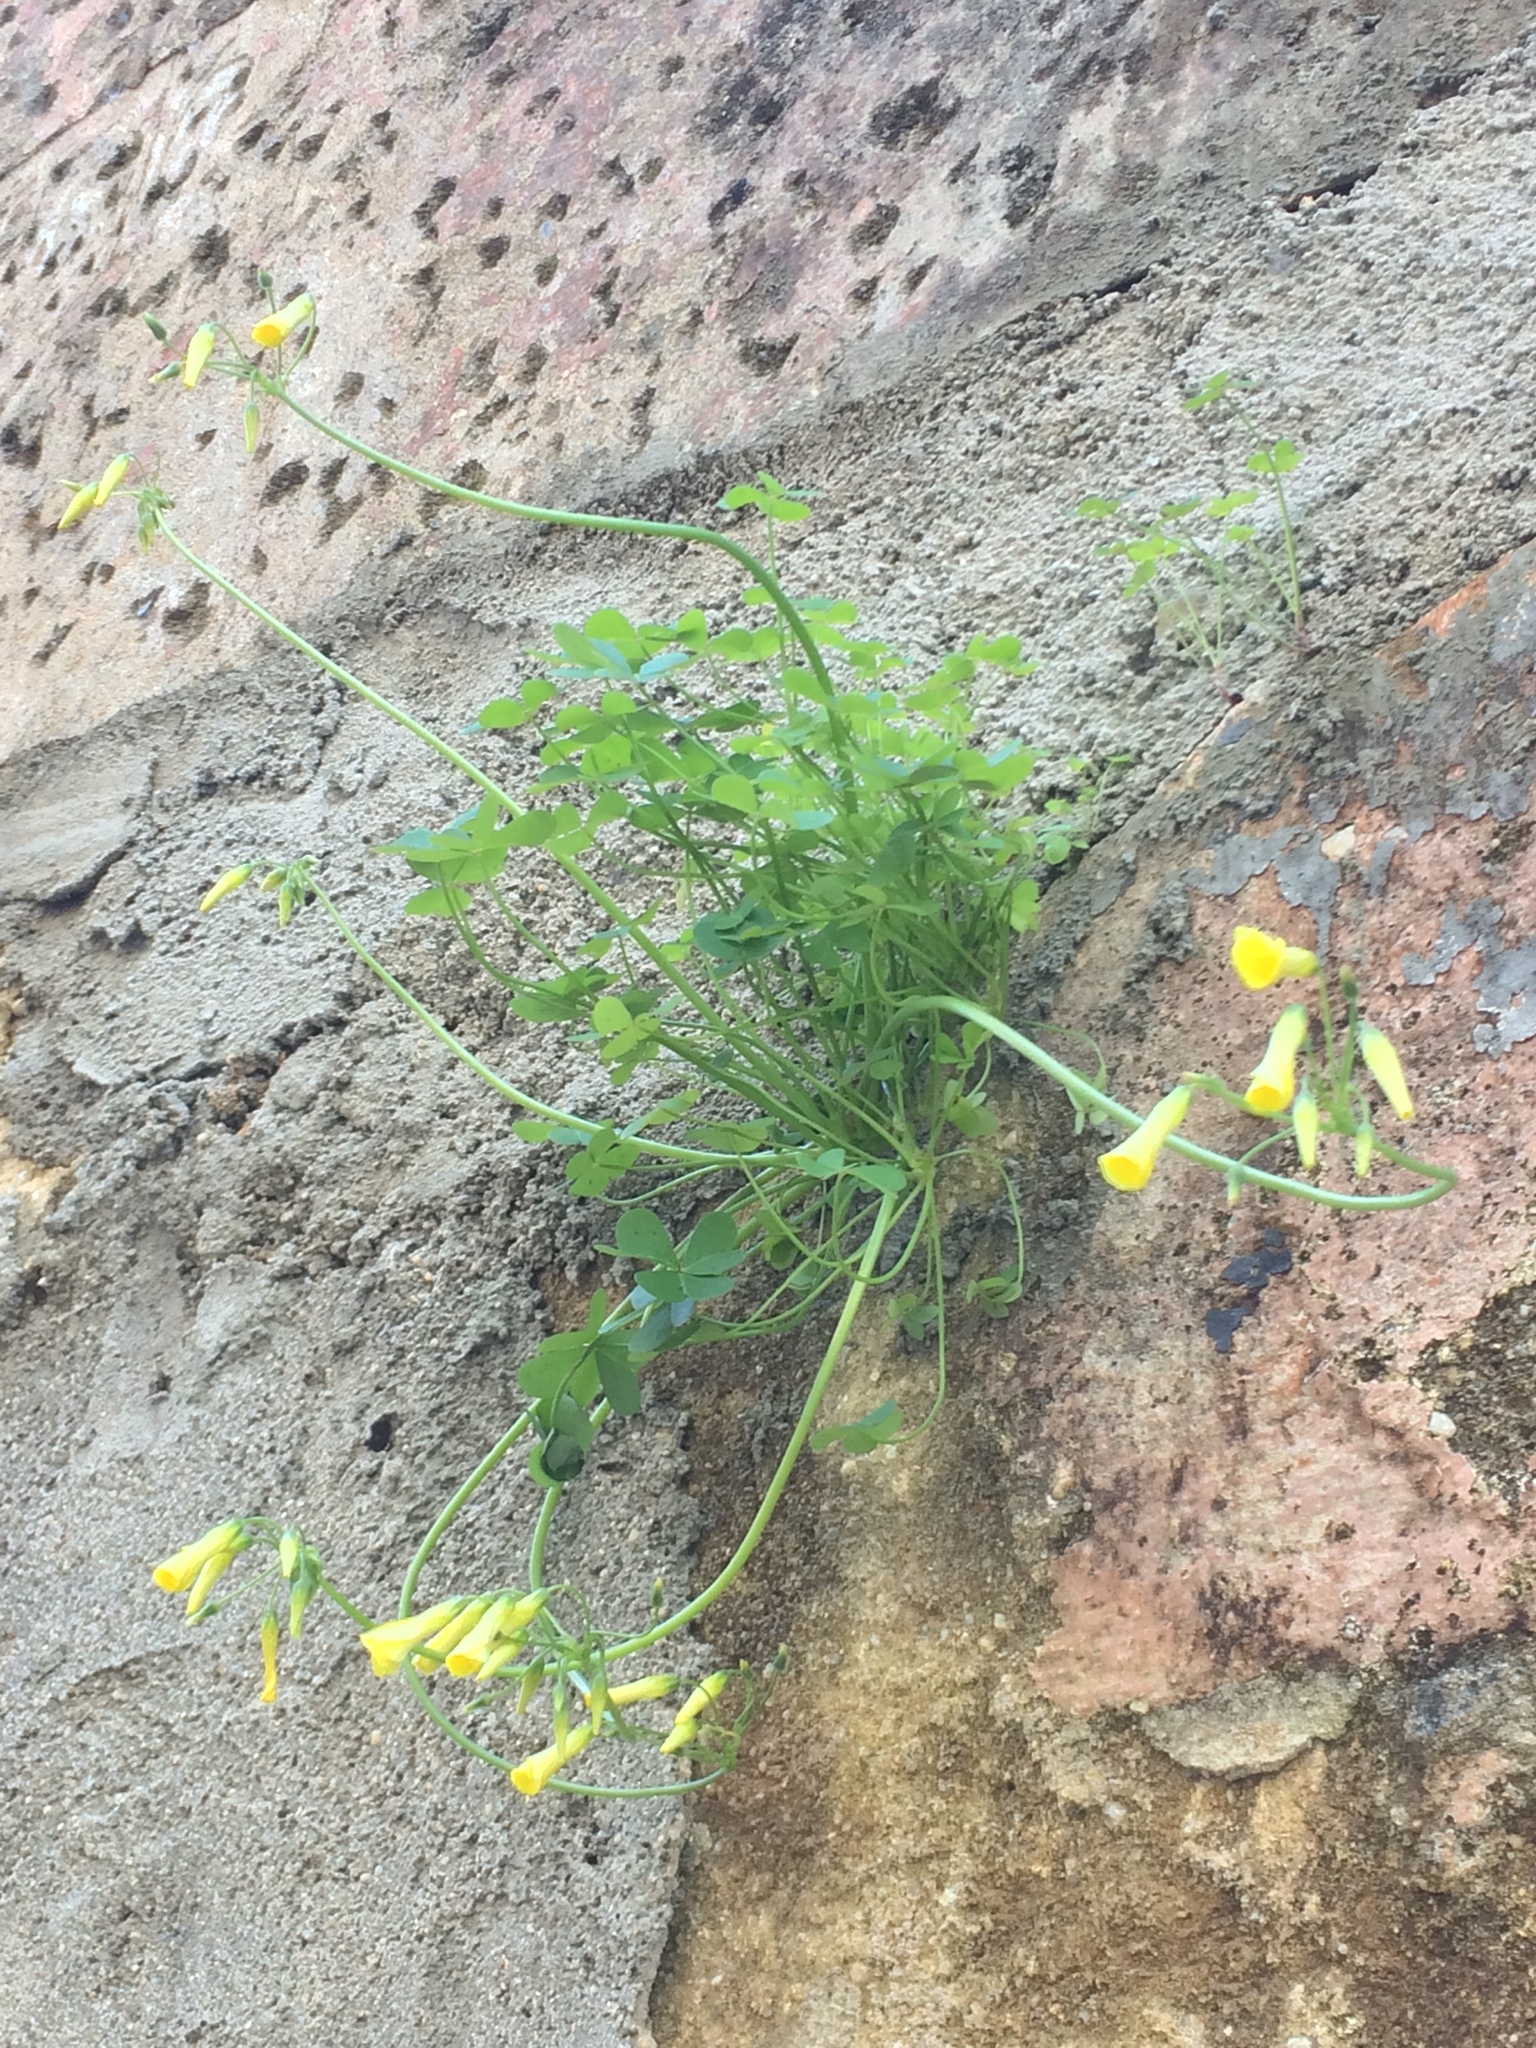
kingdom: Plantae
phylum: Tracheophyta
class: Magnoliopsida
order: Oxalidales
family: Oxalidaceae
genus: Oxalis
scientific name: Oxalis pes-caprae
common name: Bermuda-buttercup
